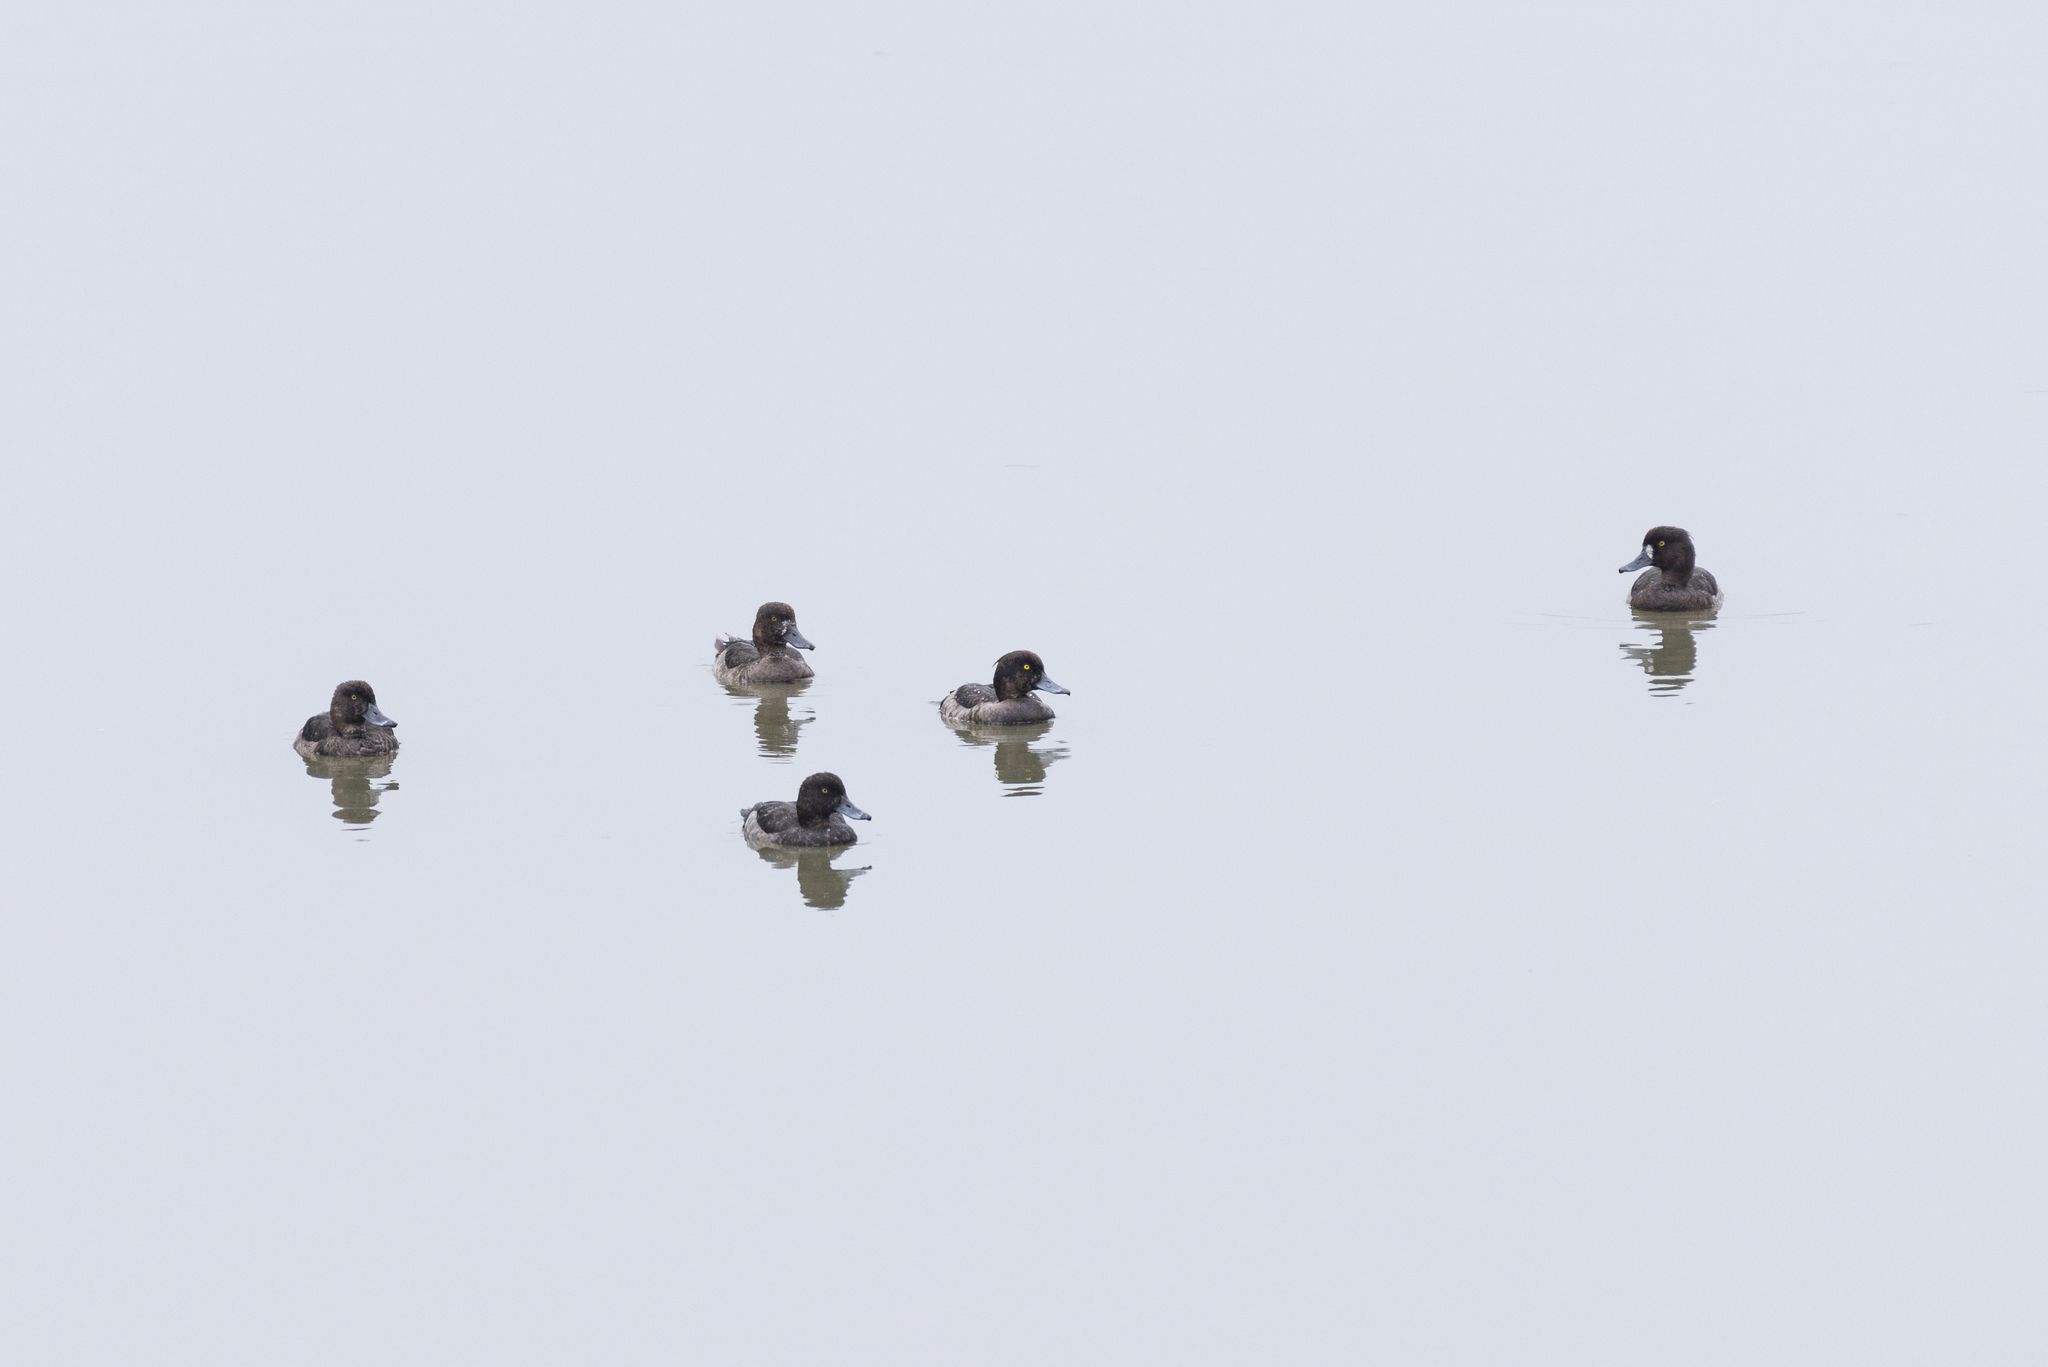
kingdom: Animalia
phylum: Chordata
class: Aves
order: Anseriformes
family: Anatidae
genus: Aythya
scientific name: Aythya fuligula
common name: Tufted duck
